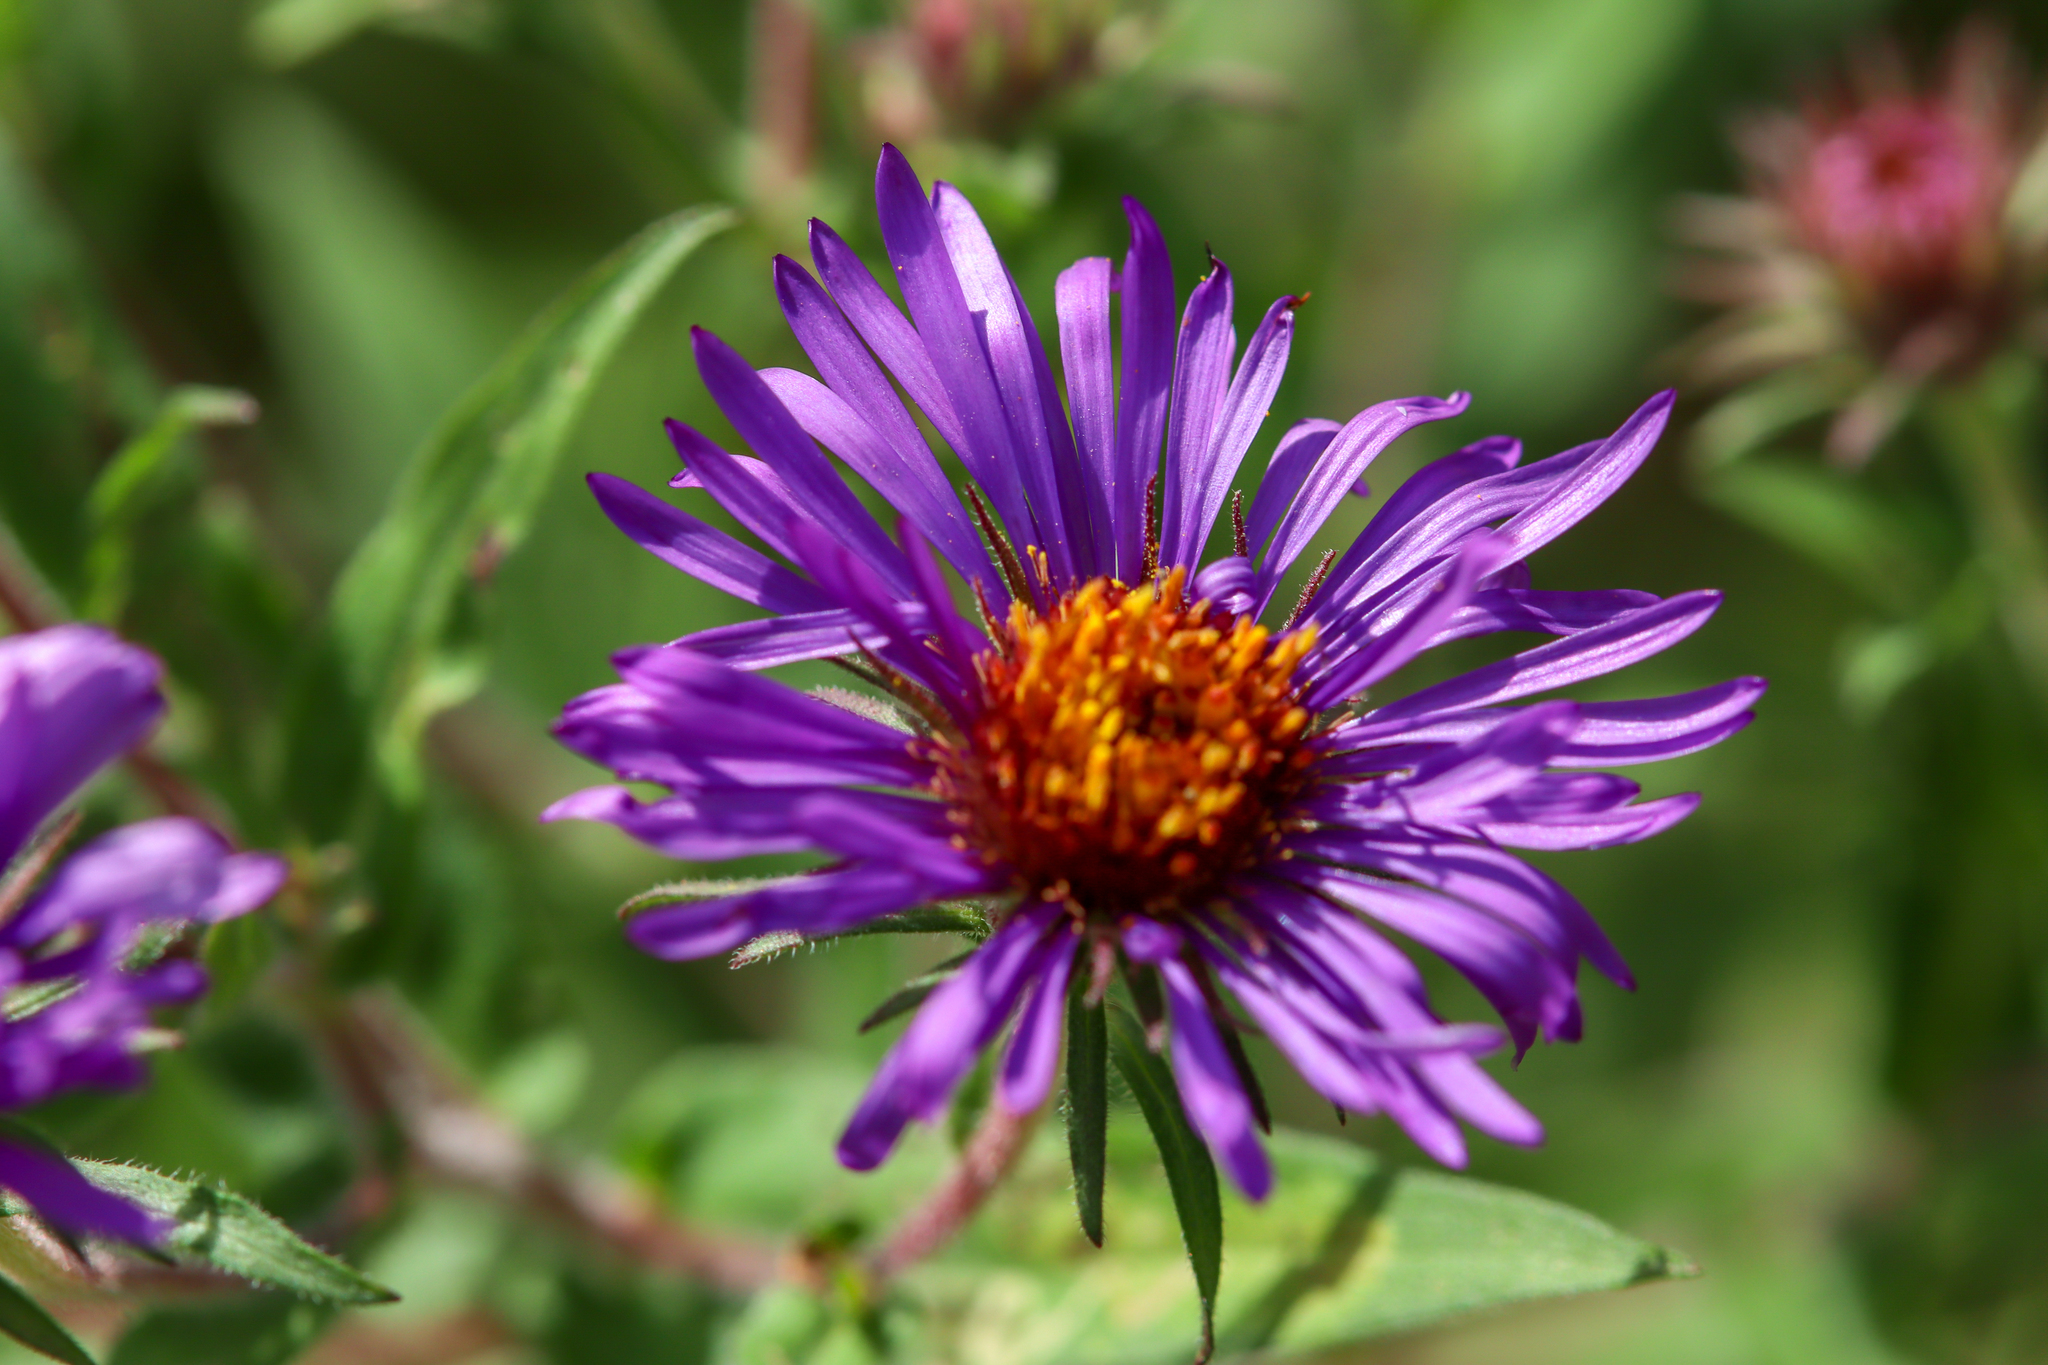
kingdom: Plantae
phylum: Tracheophyta
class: Magnoliopsida
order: Asterales
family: Asteraceae
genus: Symphyotrichum
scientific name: Symphyotrichum novae-angliae
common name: Michaelmas daisy
